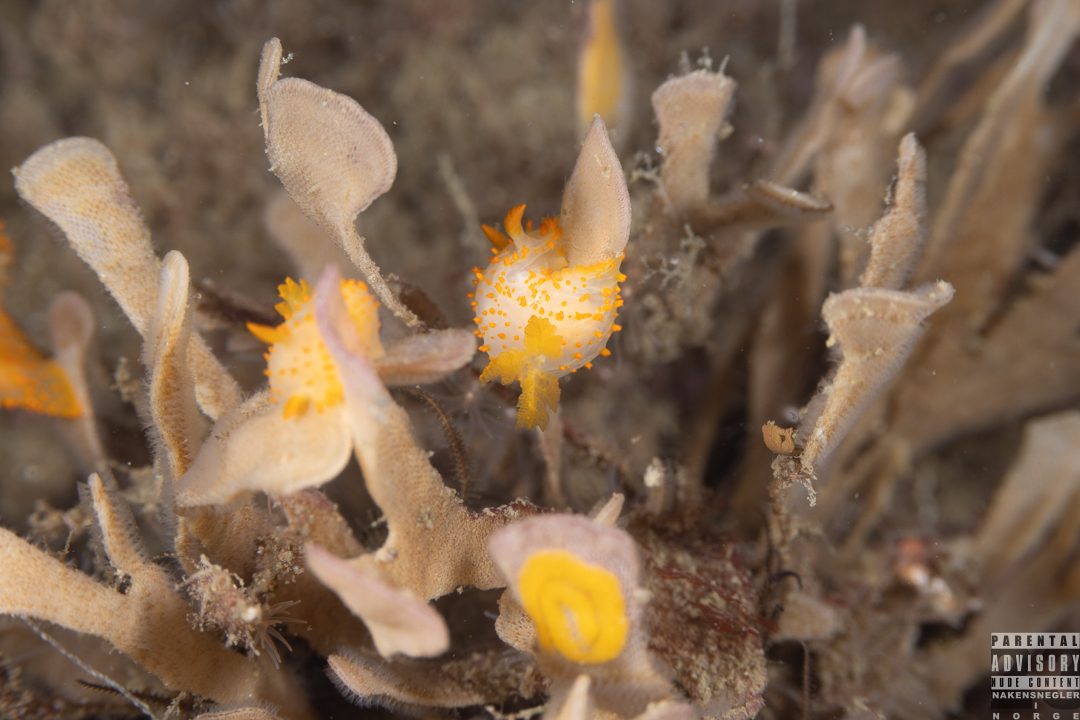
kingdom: Animalia
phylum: Mollusca
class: Gastropoda
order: Nudibranchia
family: Polyceridae
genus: Crimora
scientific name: Crimora papillata
